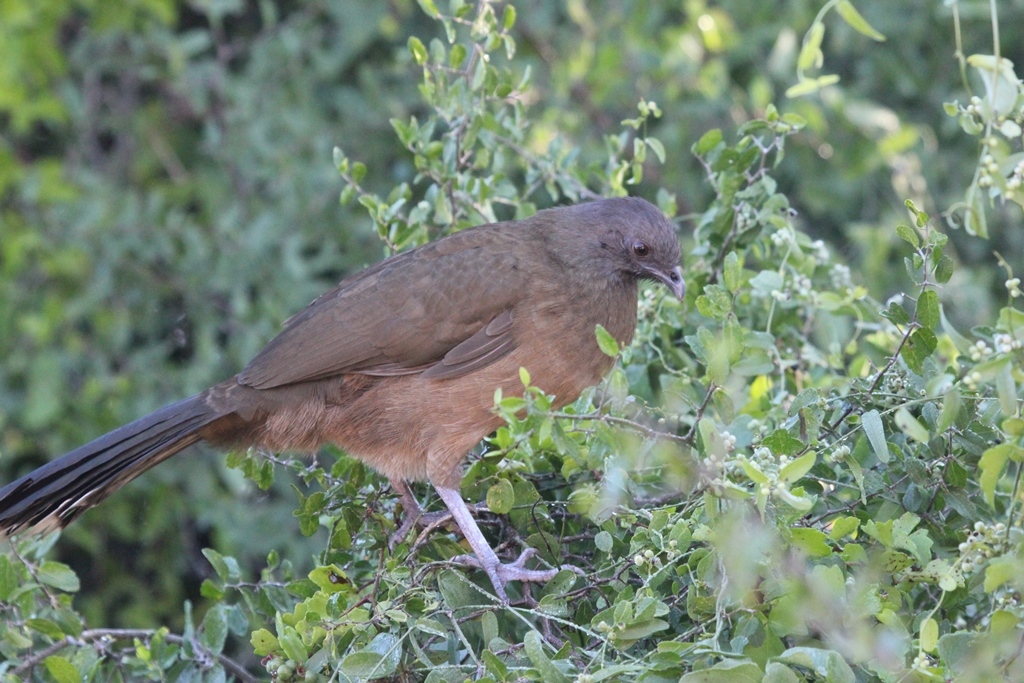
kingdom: Animalia
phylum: Chordata
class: Aves
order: Galliformes
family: Cracidae
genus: Ortalis
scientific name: Ortalis vetula
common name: Plain chachalaca
